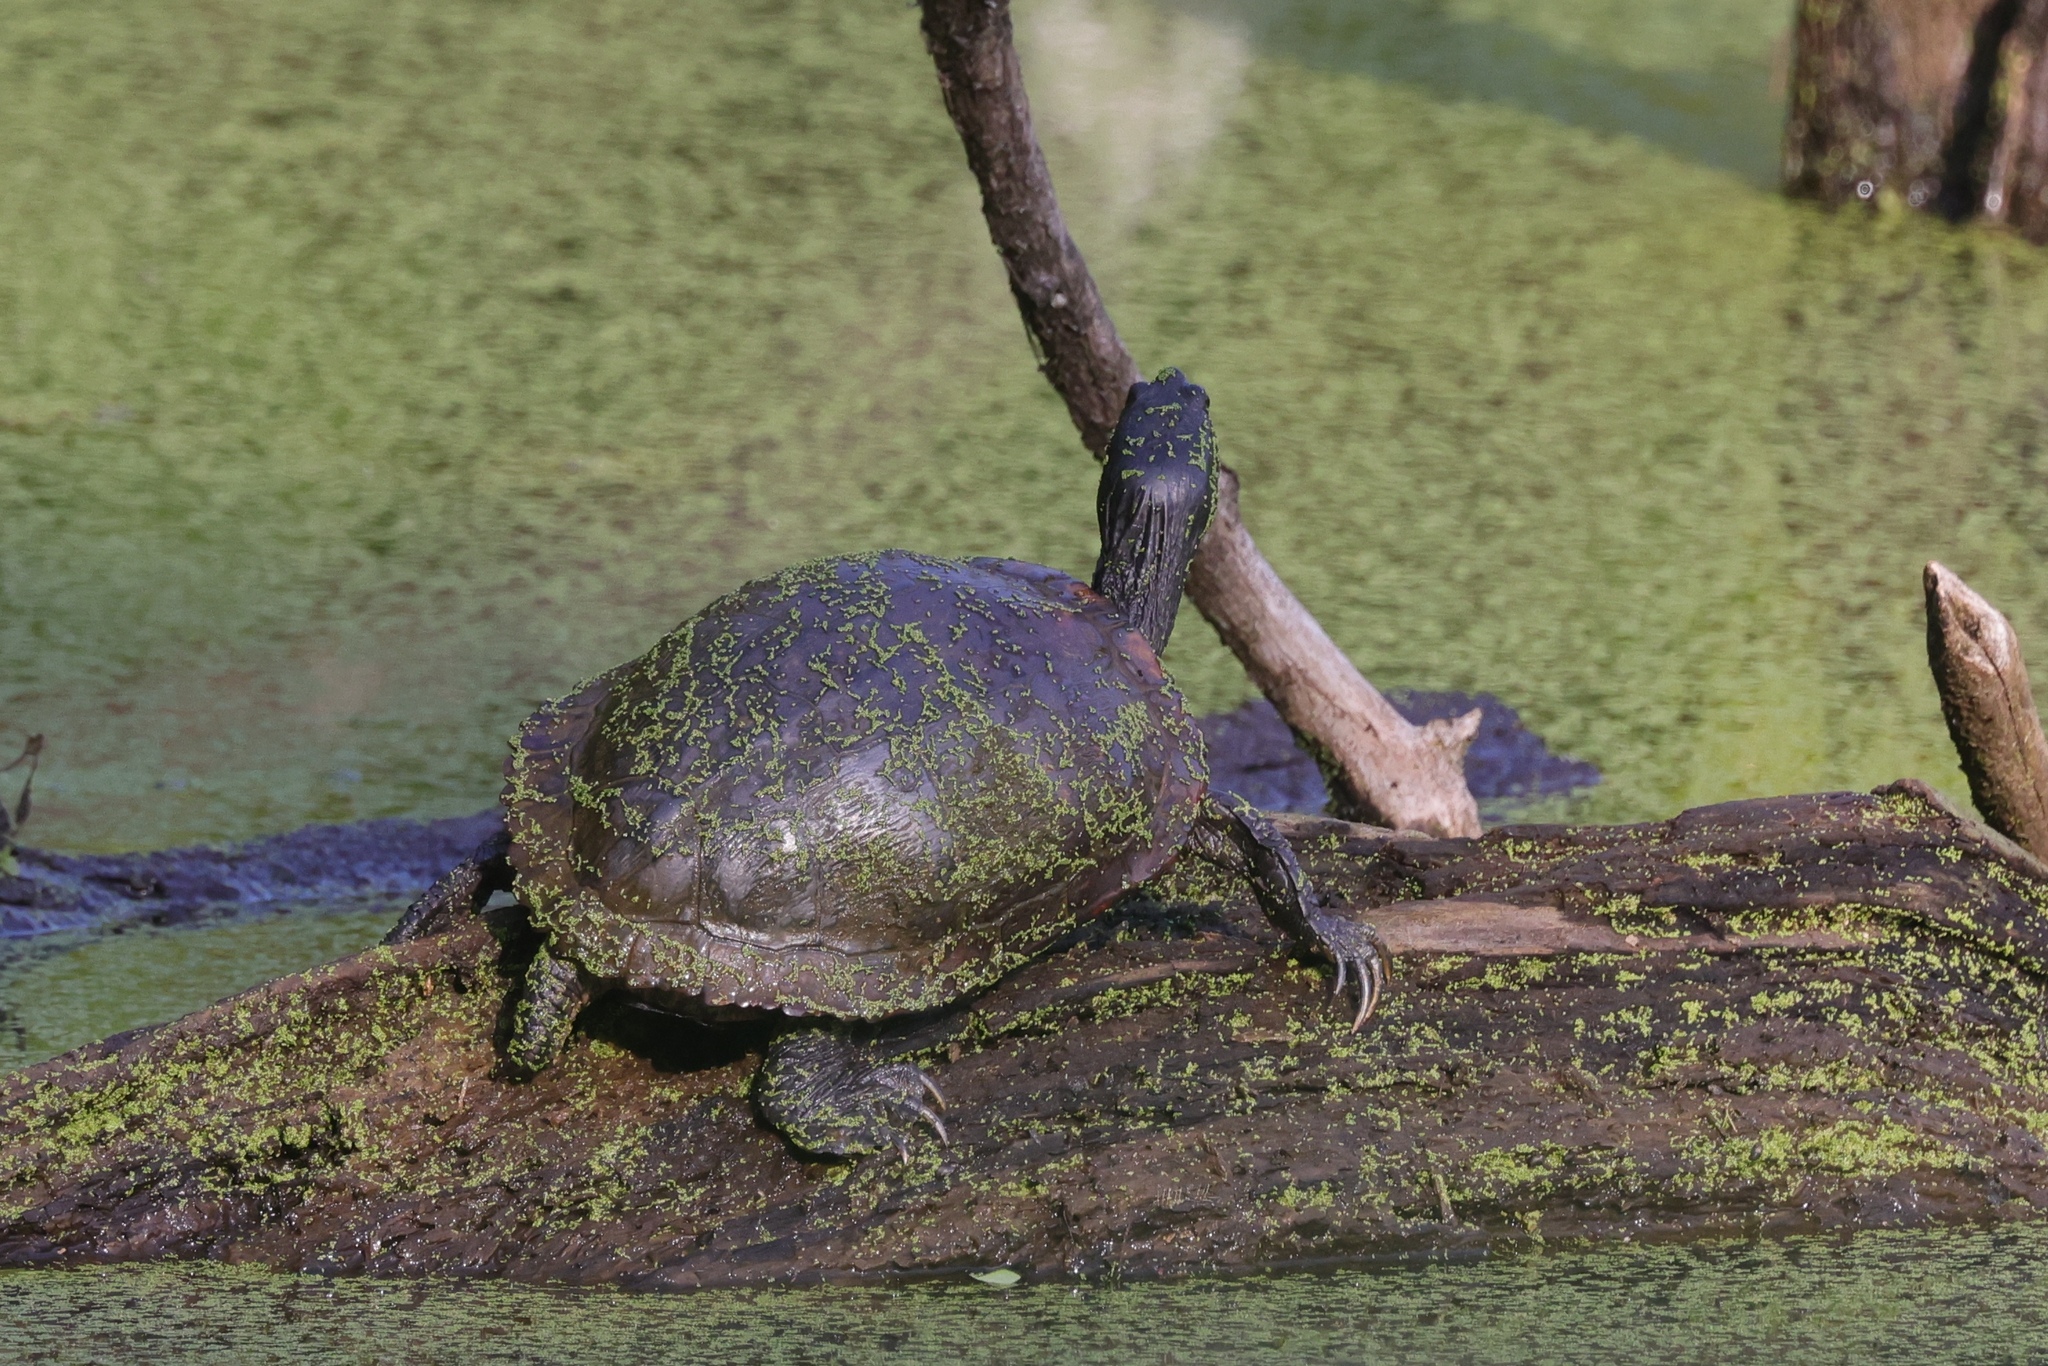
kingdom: Animalia
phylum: Chordata
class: Testudines
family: Emydidae
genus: Trachemys
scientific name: Trachemys scripta
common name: Slider
